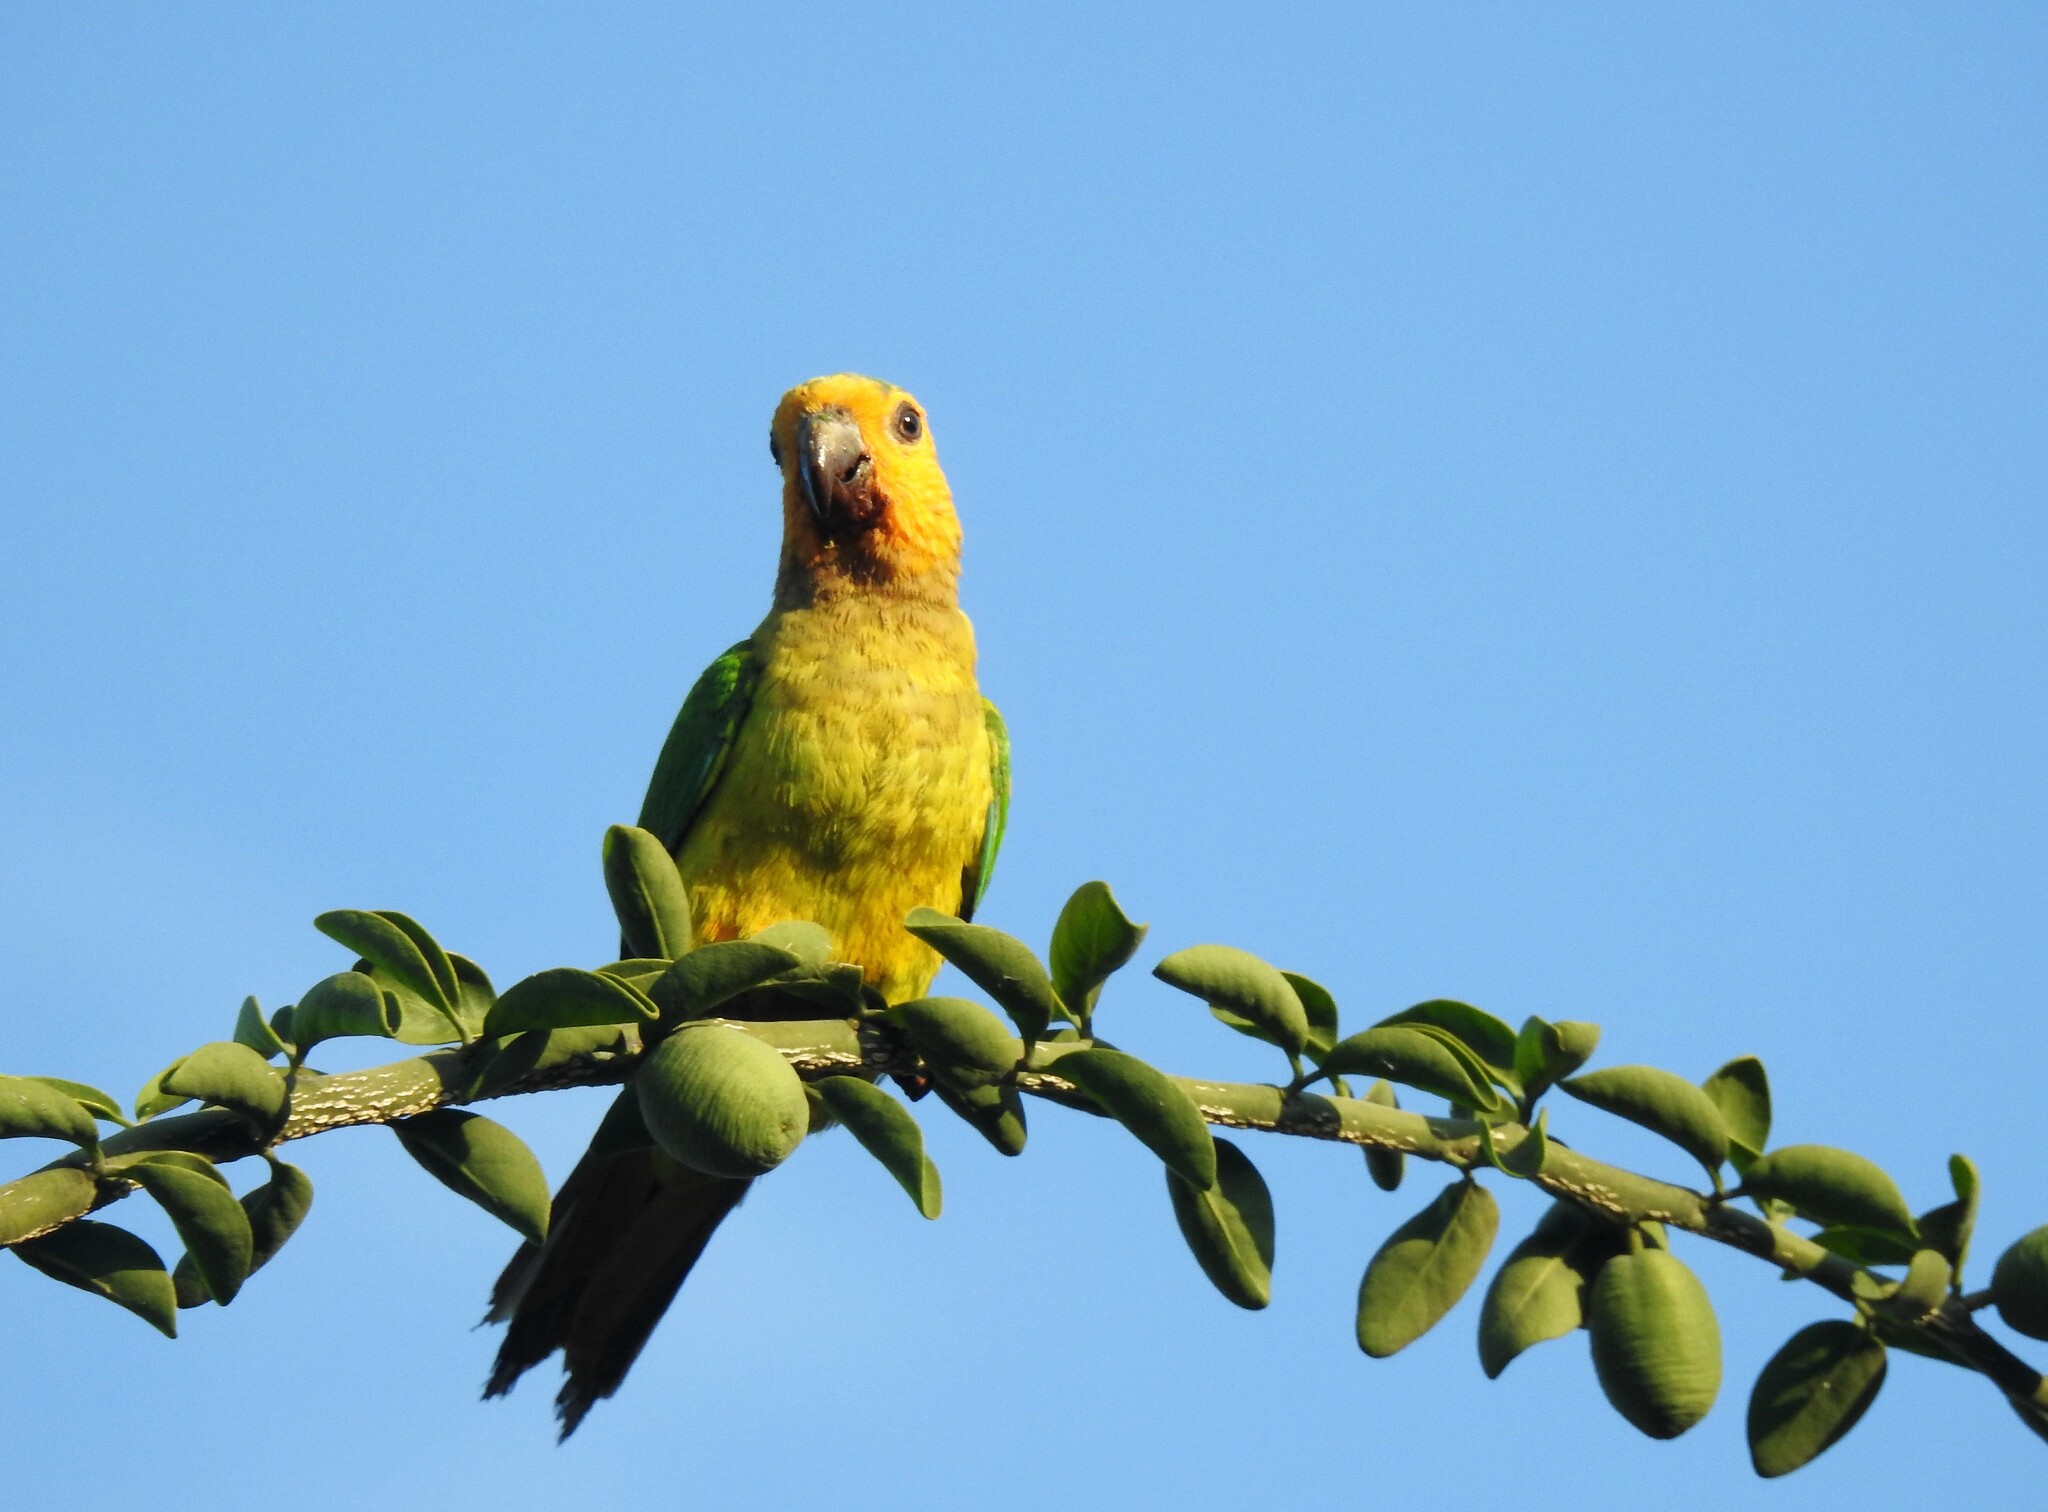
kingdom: Animalia
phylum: Chordata
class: Aves
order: Psittaciformes
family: Psittacidae
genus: Aratinga
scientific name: Aratinga pertinax
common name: Brown-throated parakeet
